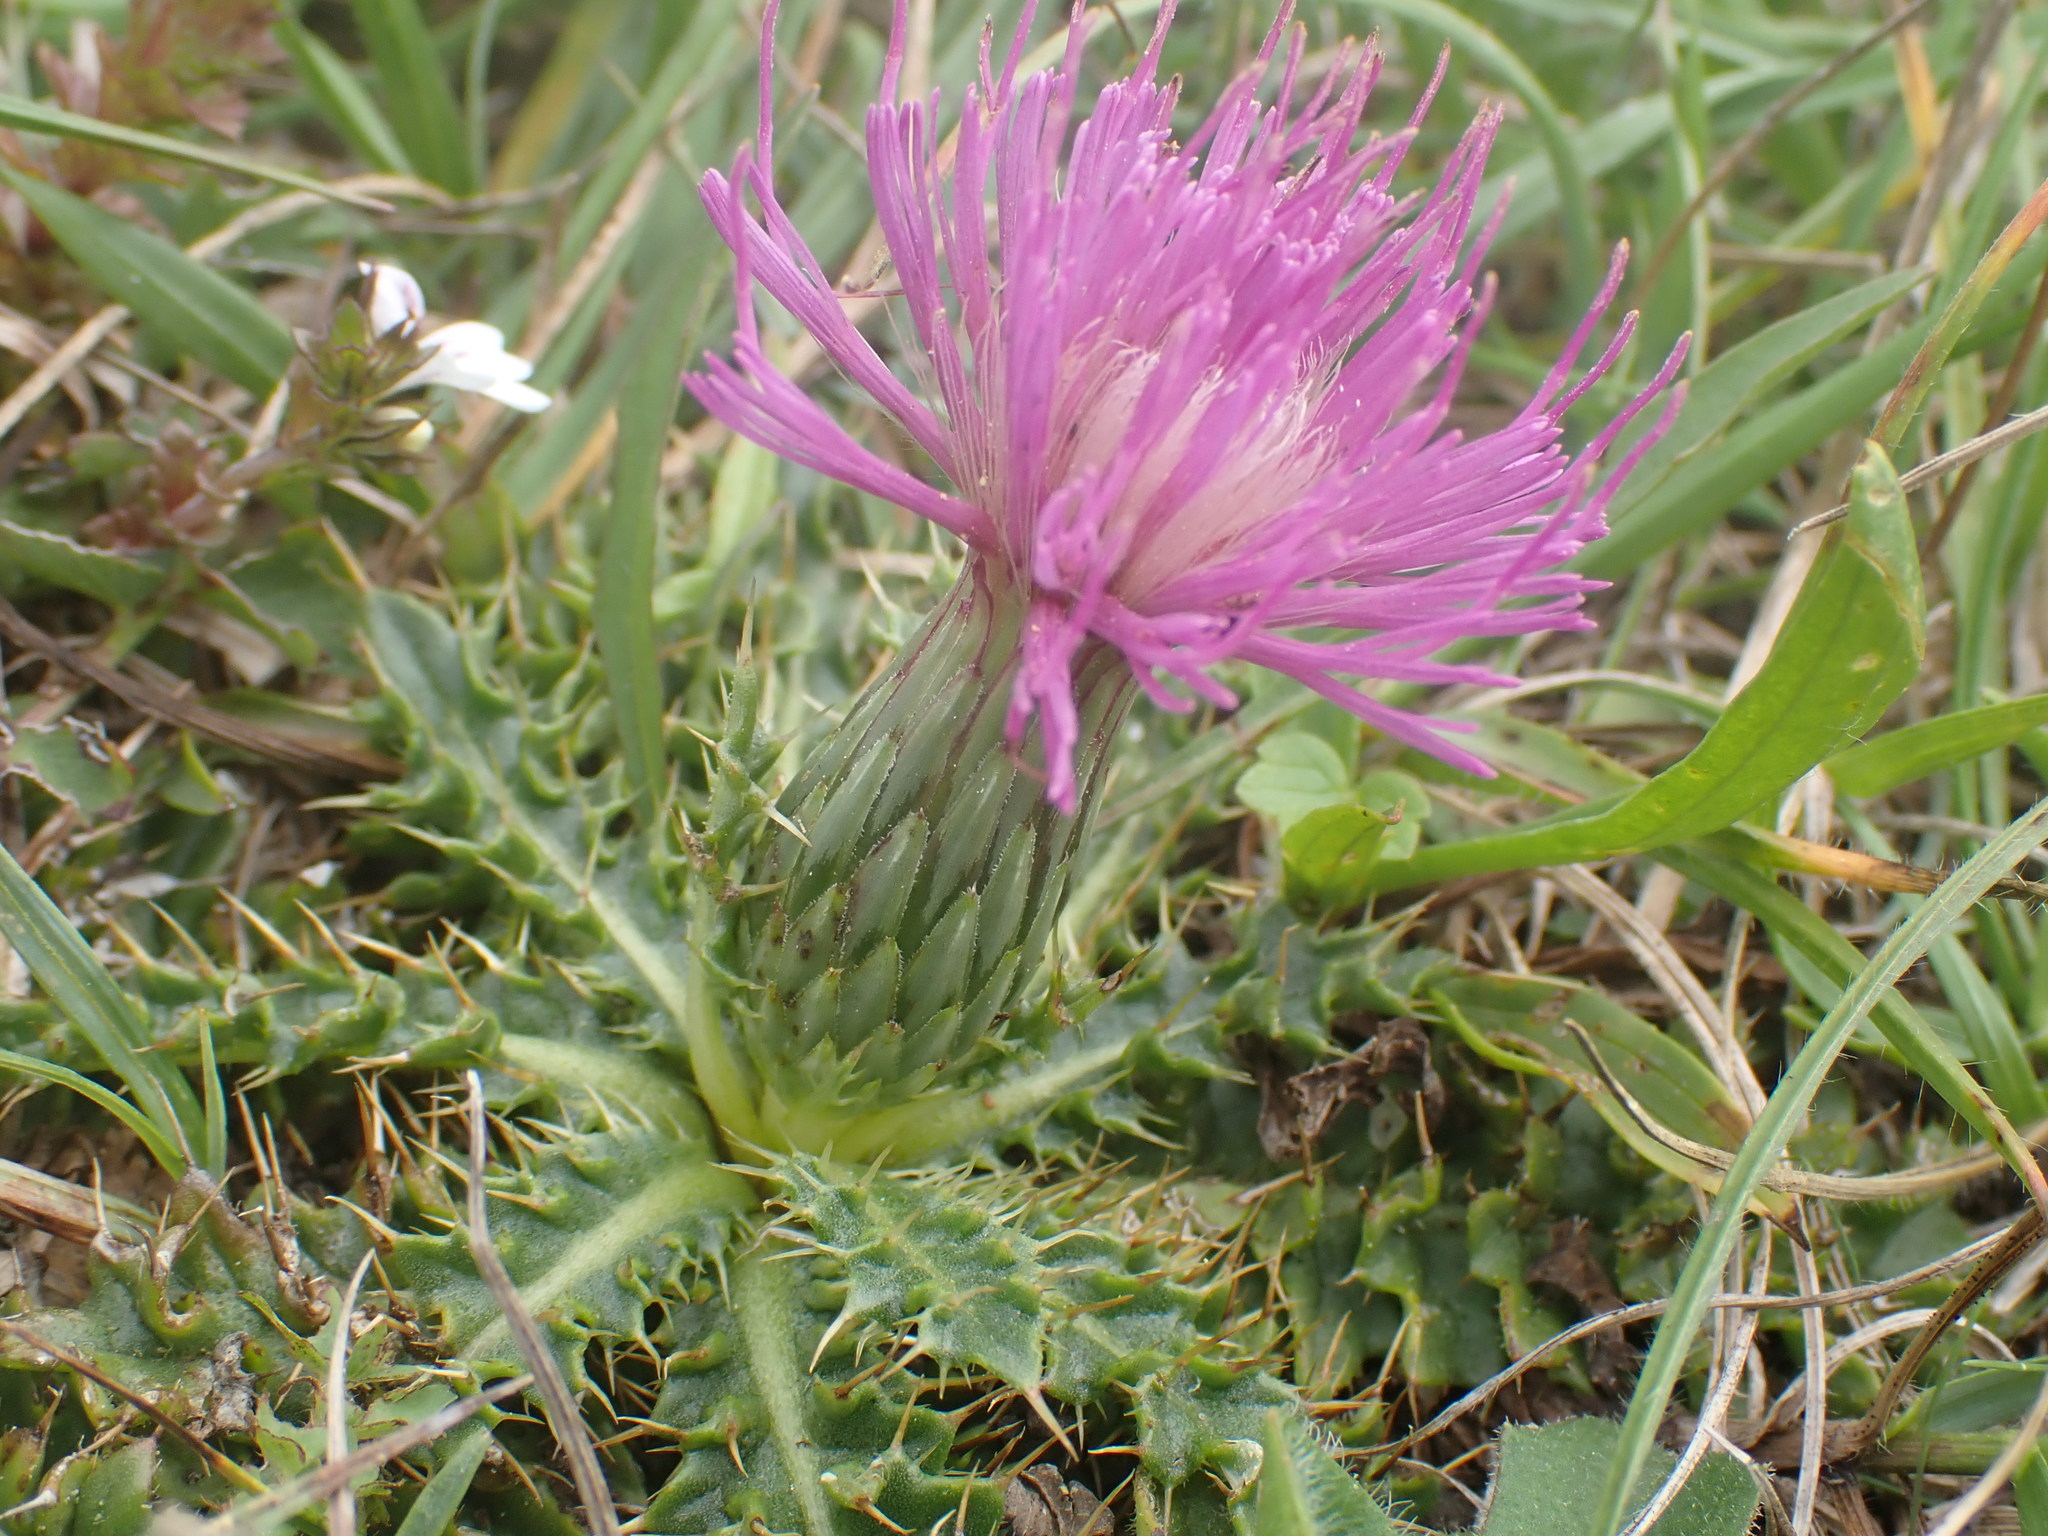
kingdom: Plantae
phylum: Tracheophyta
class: Magnoliopsida
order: Asterales
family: Asteraceae
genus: Cirsium
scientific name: Cirsium acaulon
